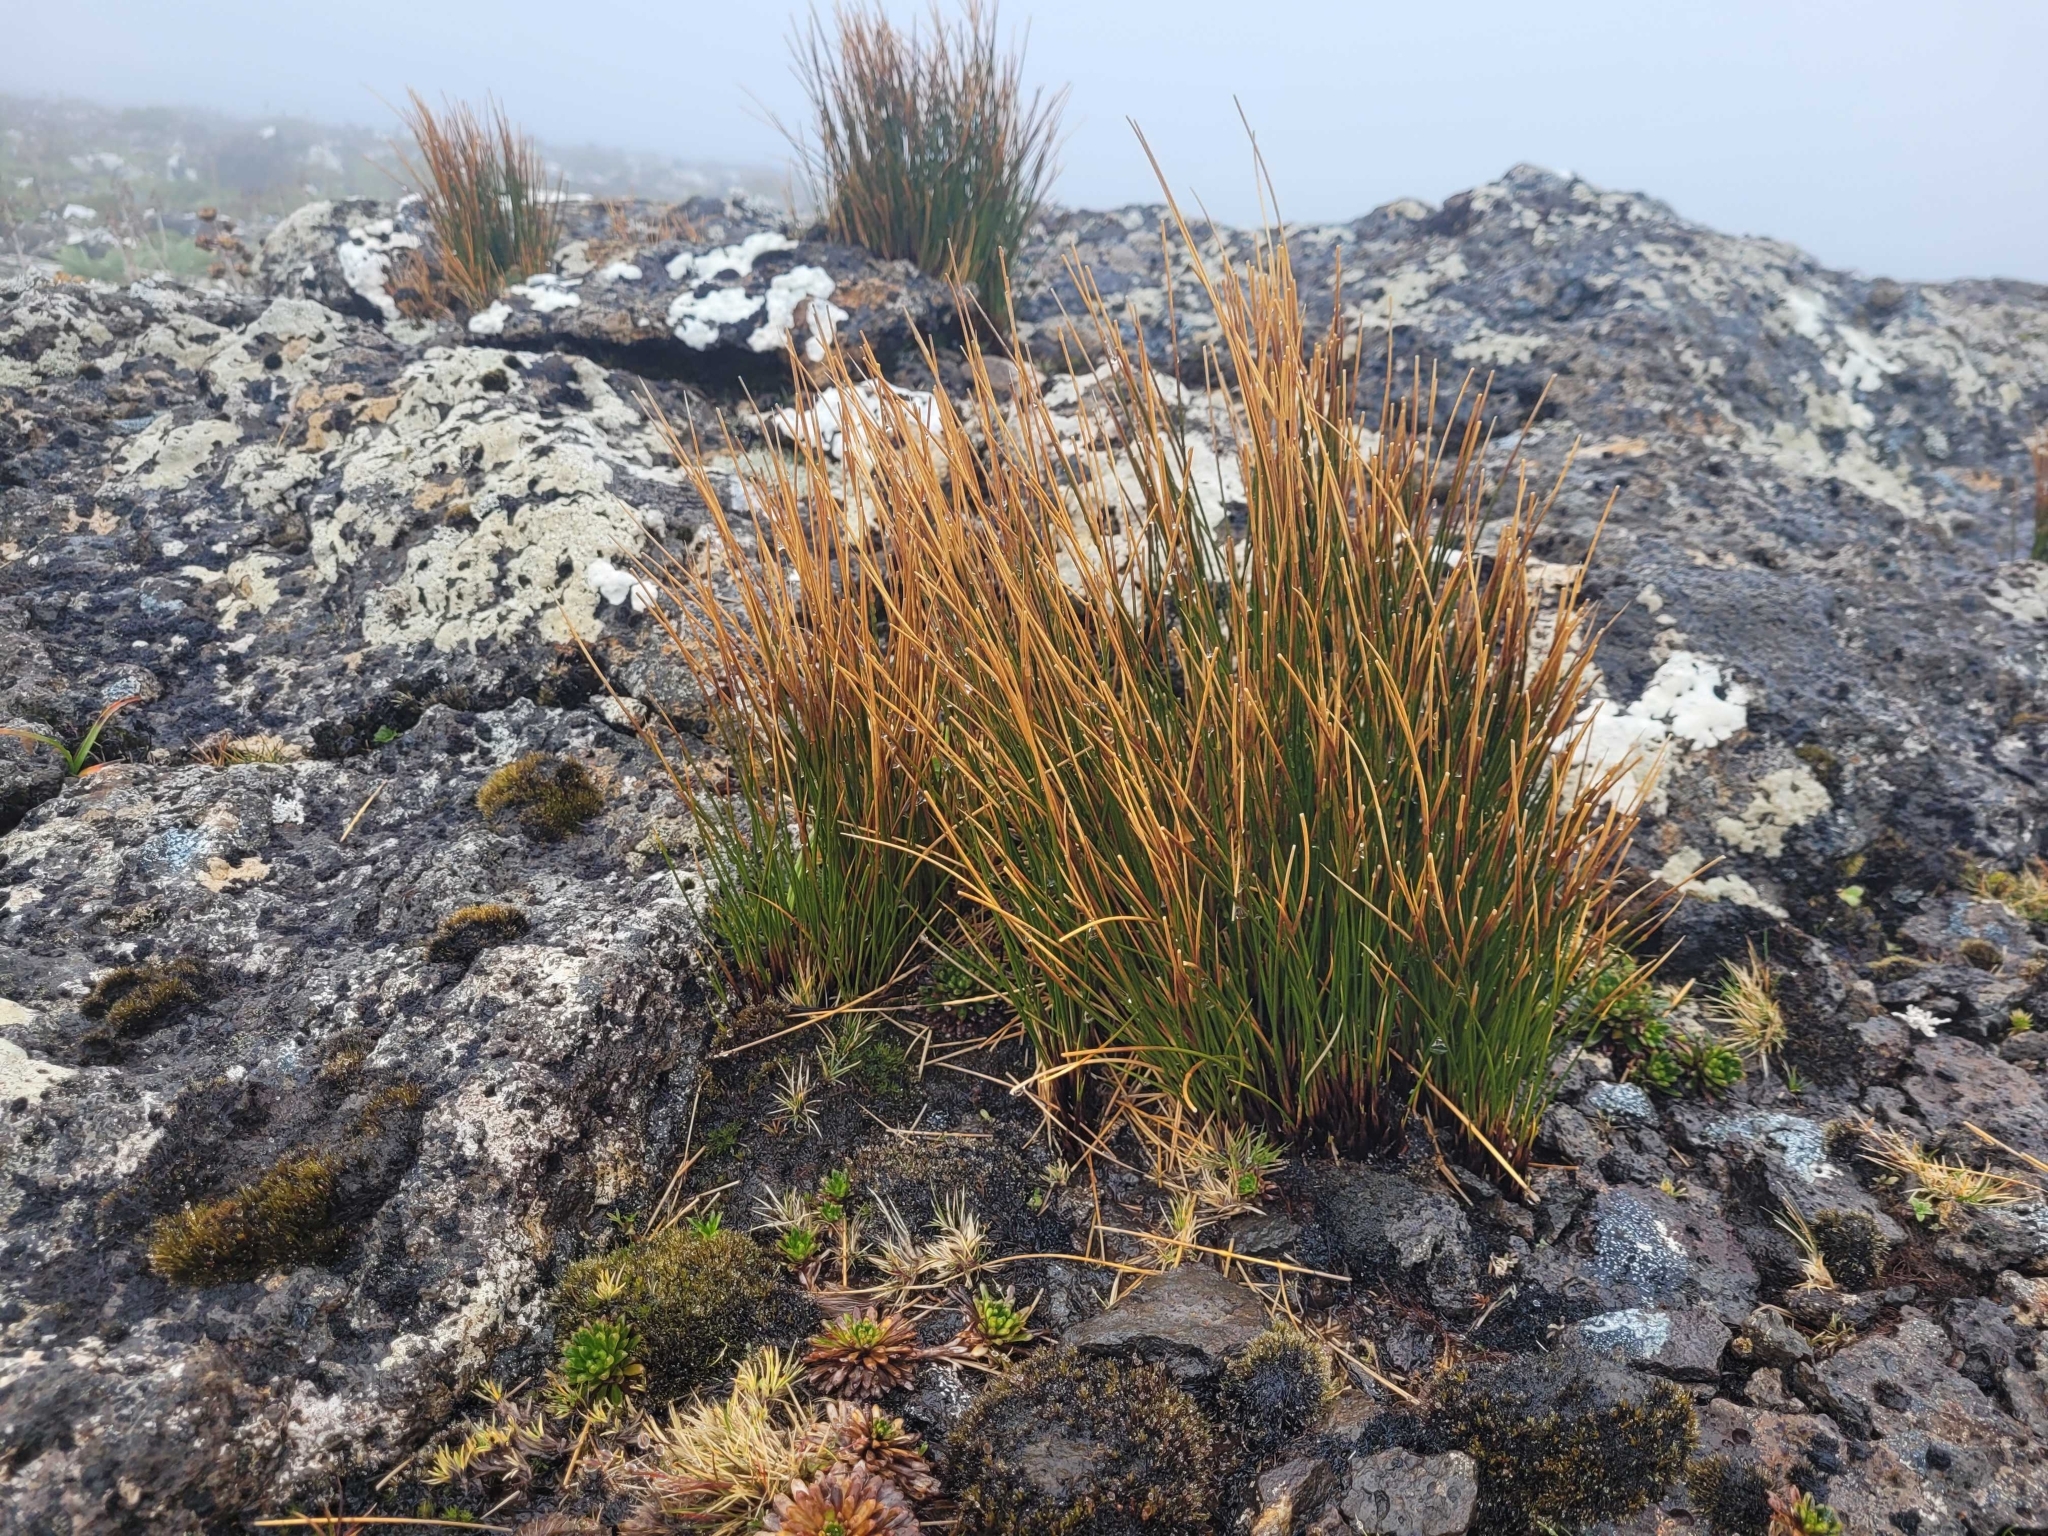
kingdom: Plantae
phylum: Tracheophyta
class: Liliopsida
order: Poales
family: Juncaceae
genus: Marsippospermum
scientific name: Marsippospermum gracile
